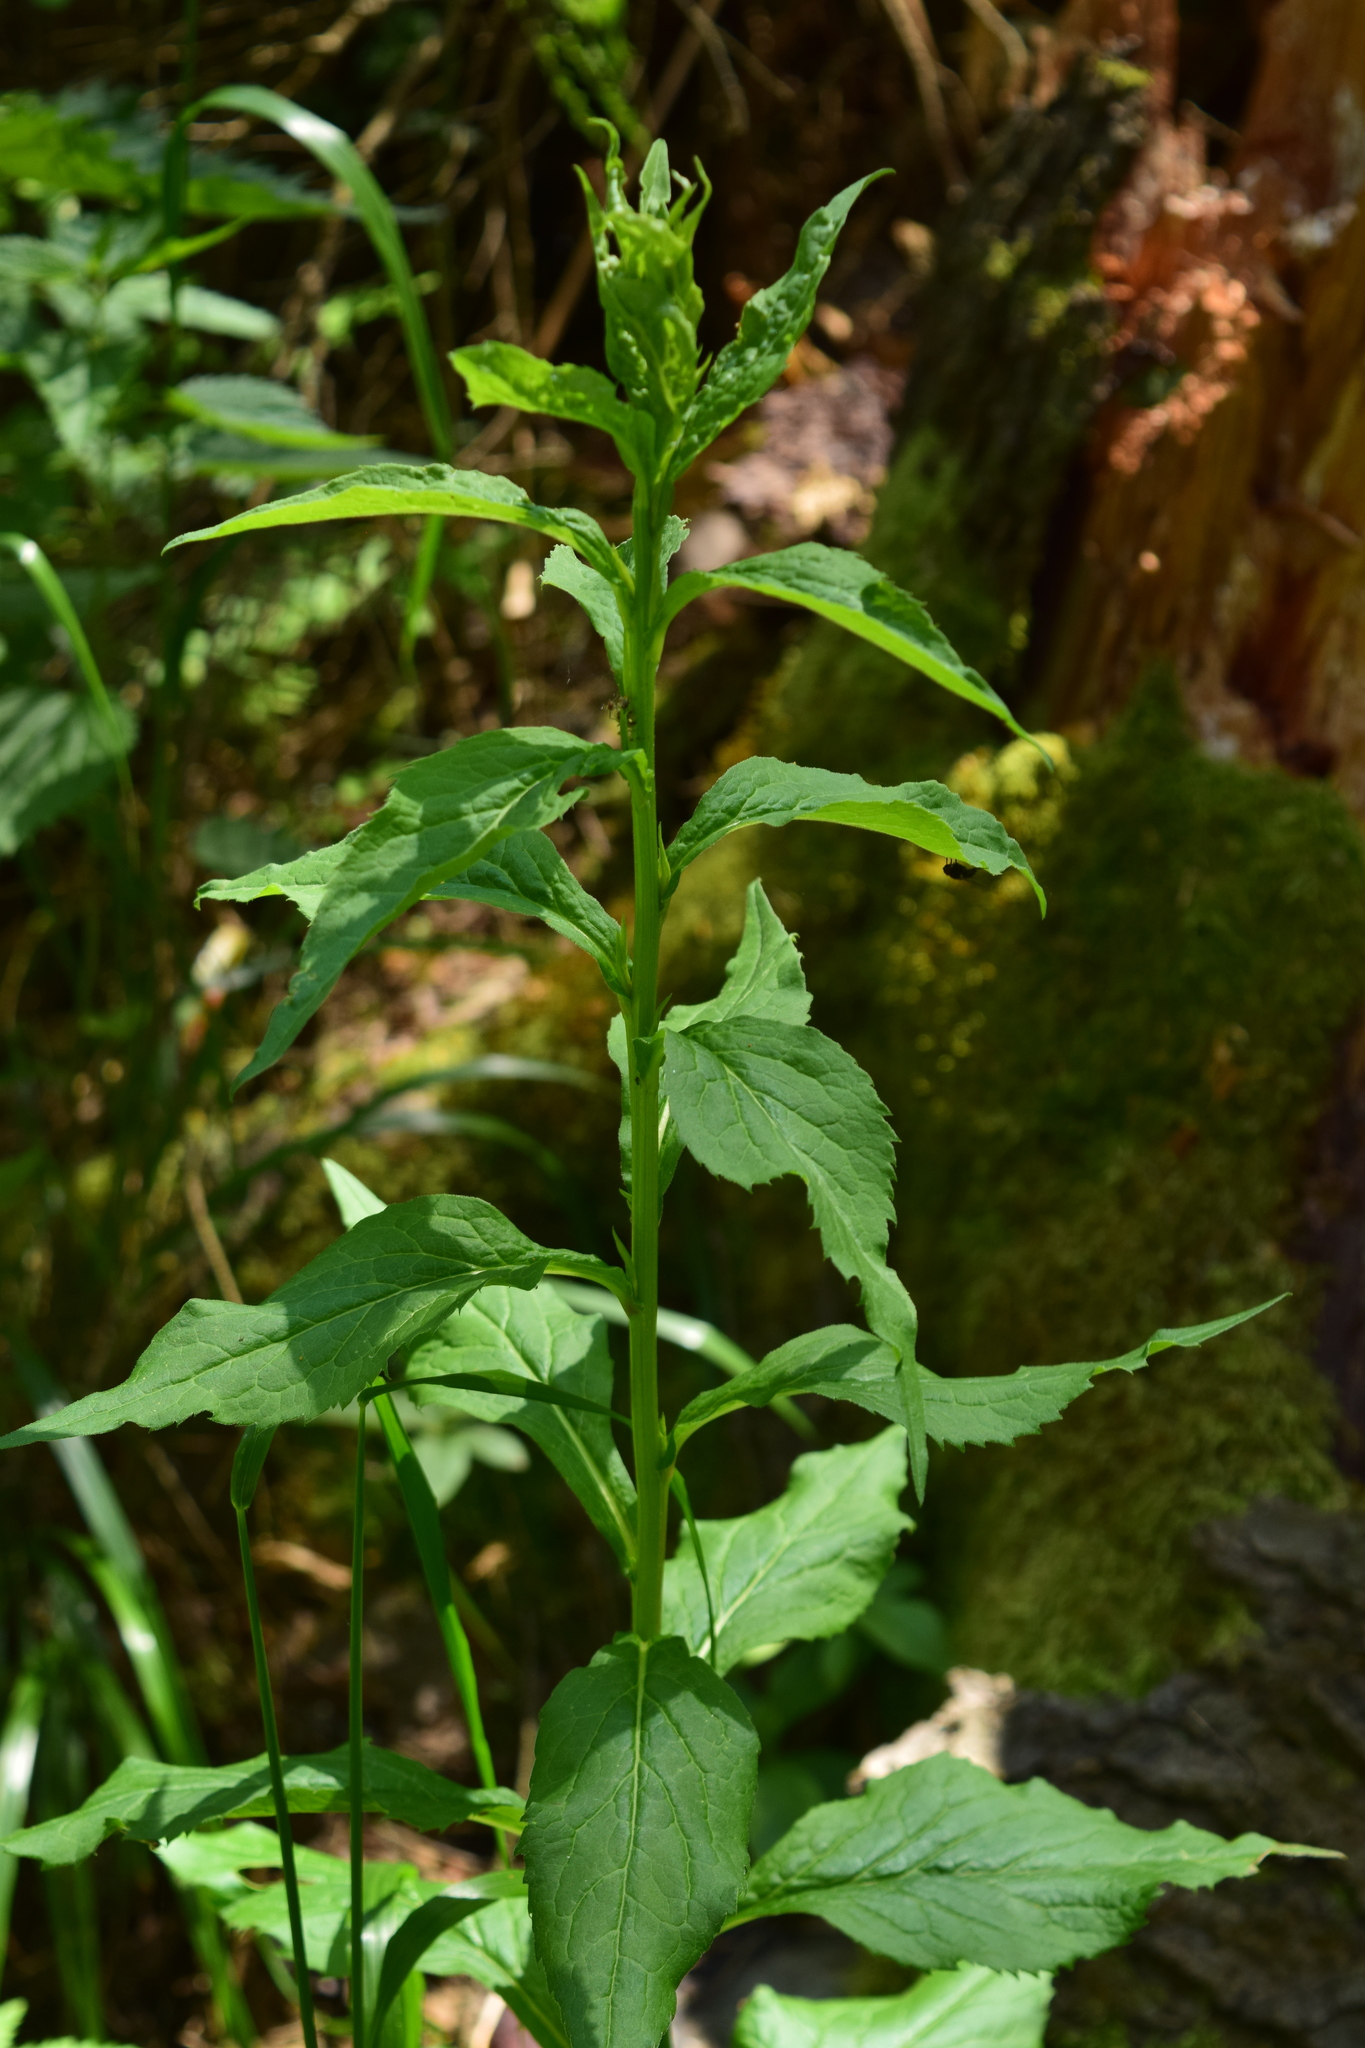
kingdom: Plantae
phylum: Tracheophyta
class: Magnoliopsida
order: Asterales
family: Asteraceae
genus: Solidago
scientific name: Solidago virgaurea
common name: Goldenrod
